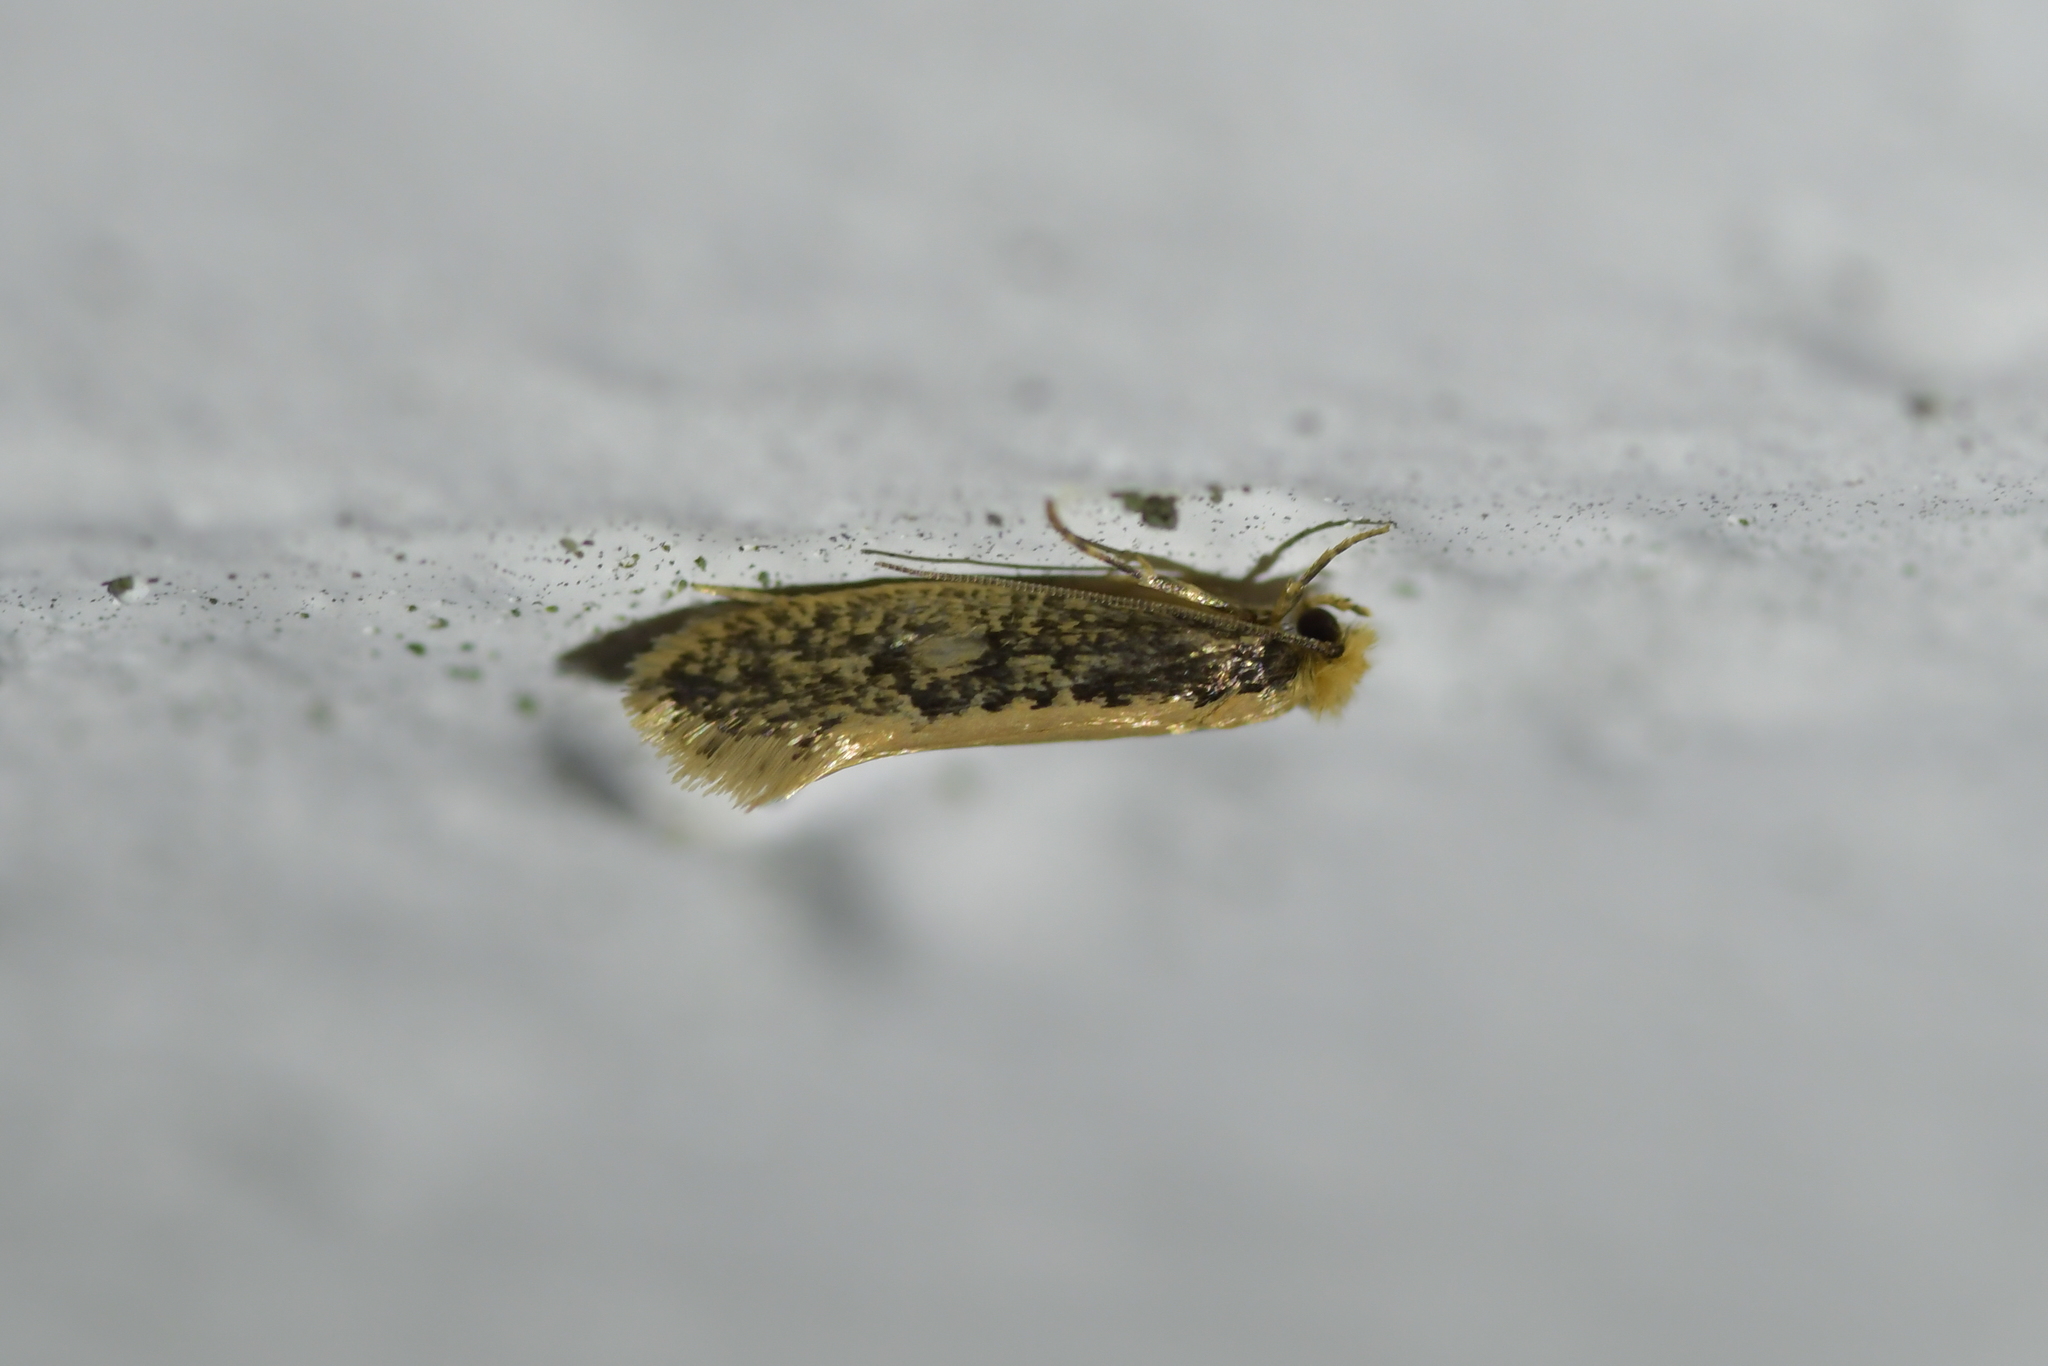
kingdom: Animalia
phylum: Arthropoda
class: Insecta
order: Lepidoptera
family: Tineidae
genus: Monopis
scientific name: Monopis crocicapitella
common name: Moth
